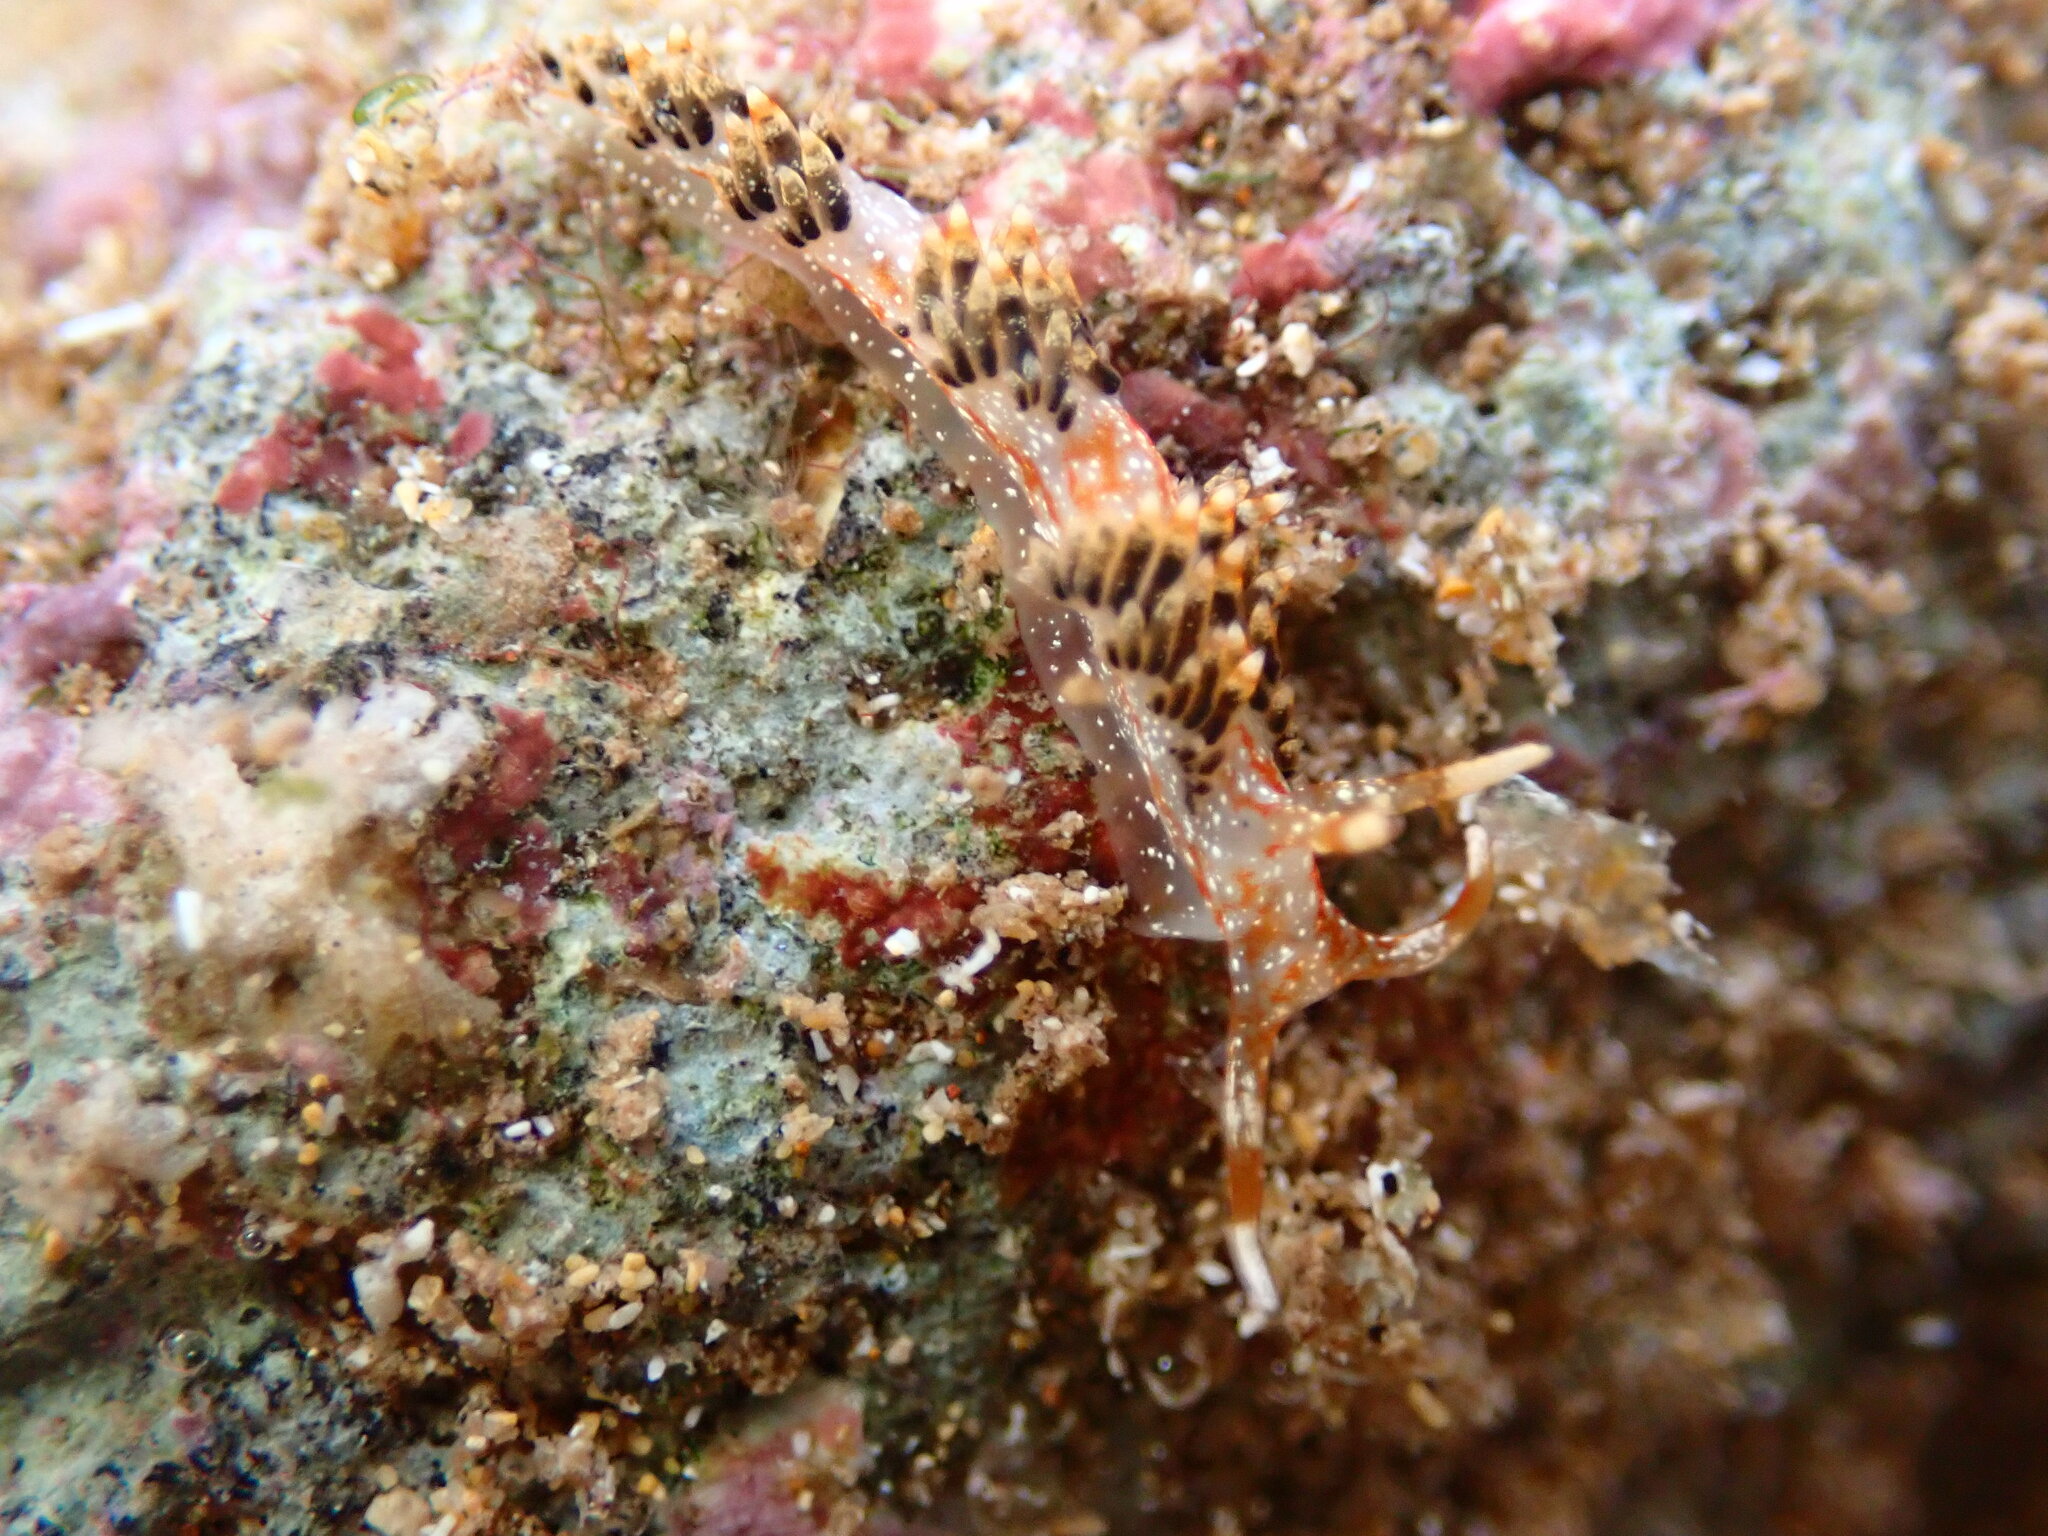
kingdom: Animalia
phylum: Mollusca
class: Gastropoda
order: Nudibranchia
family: Facelinidae
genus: Phidiana
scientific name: Phidiana semidecora
